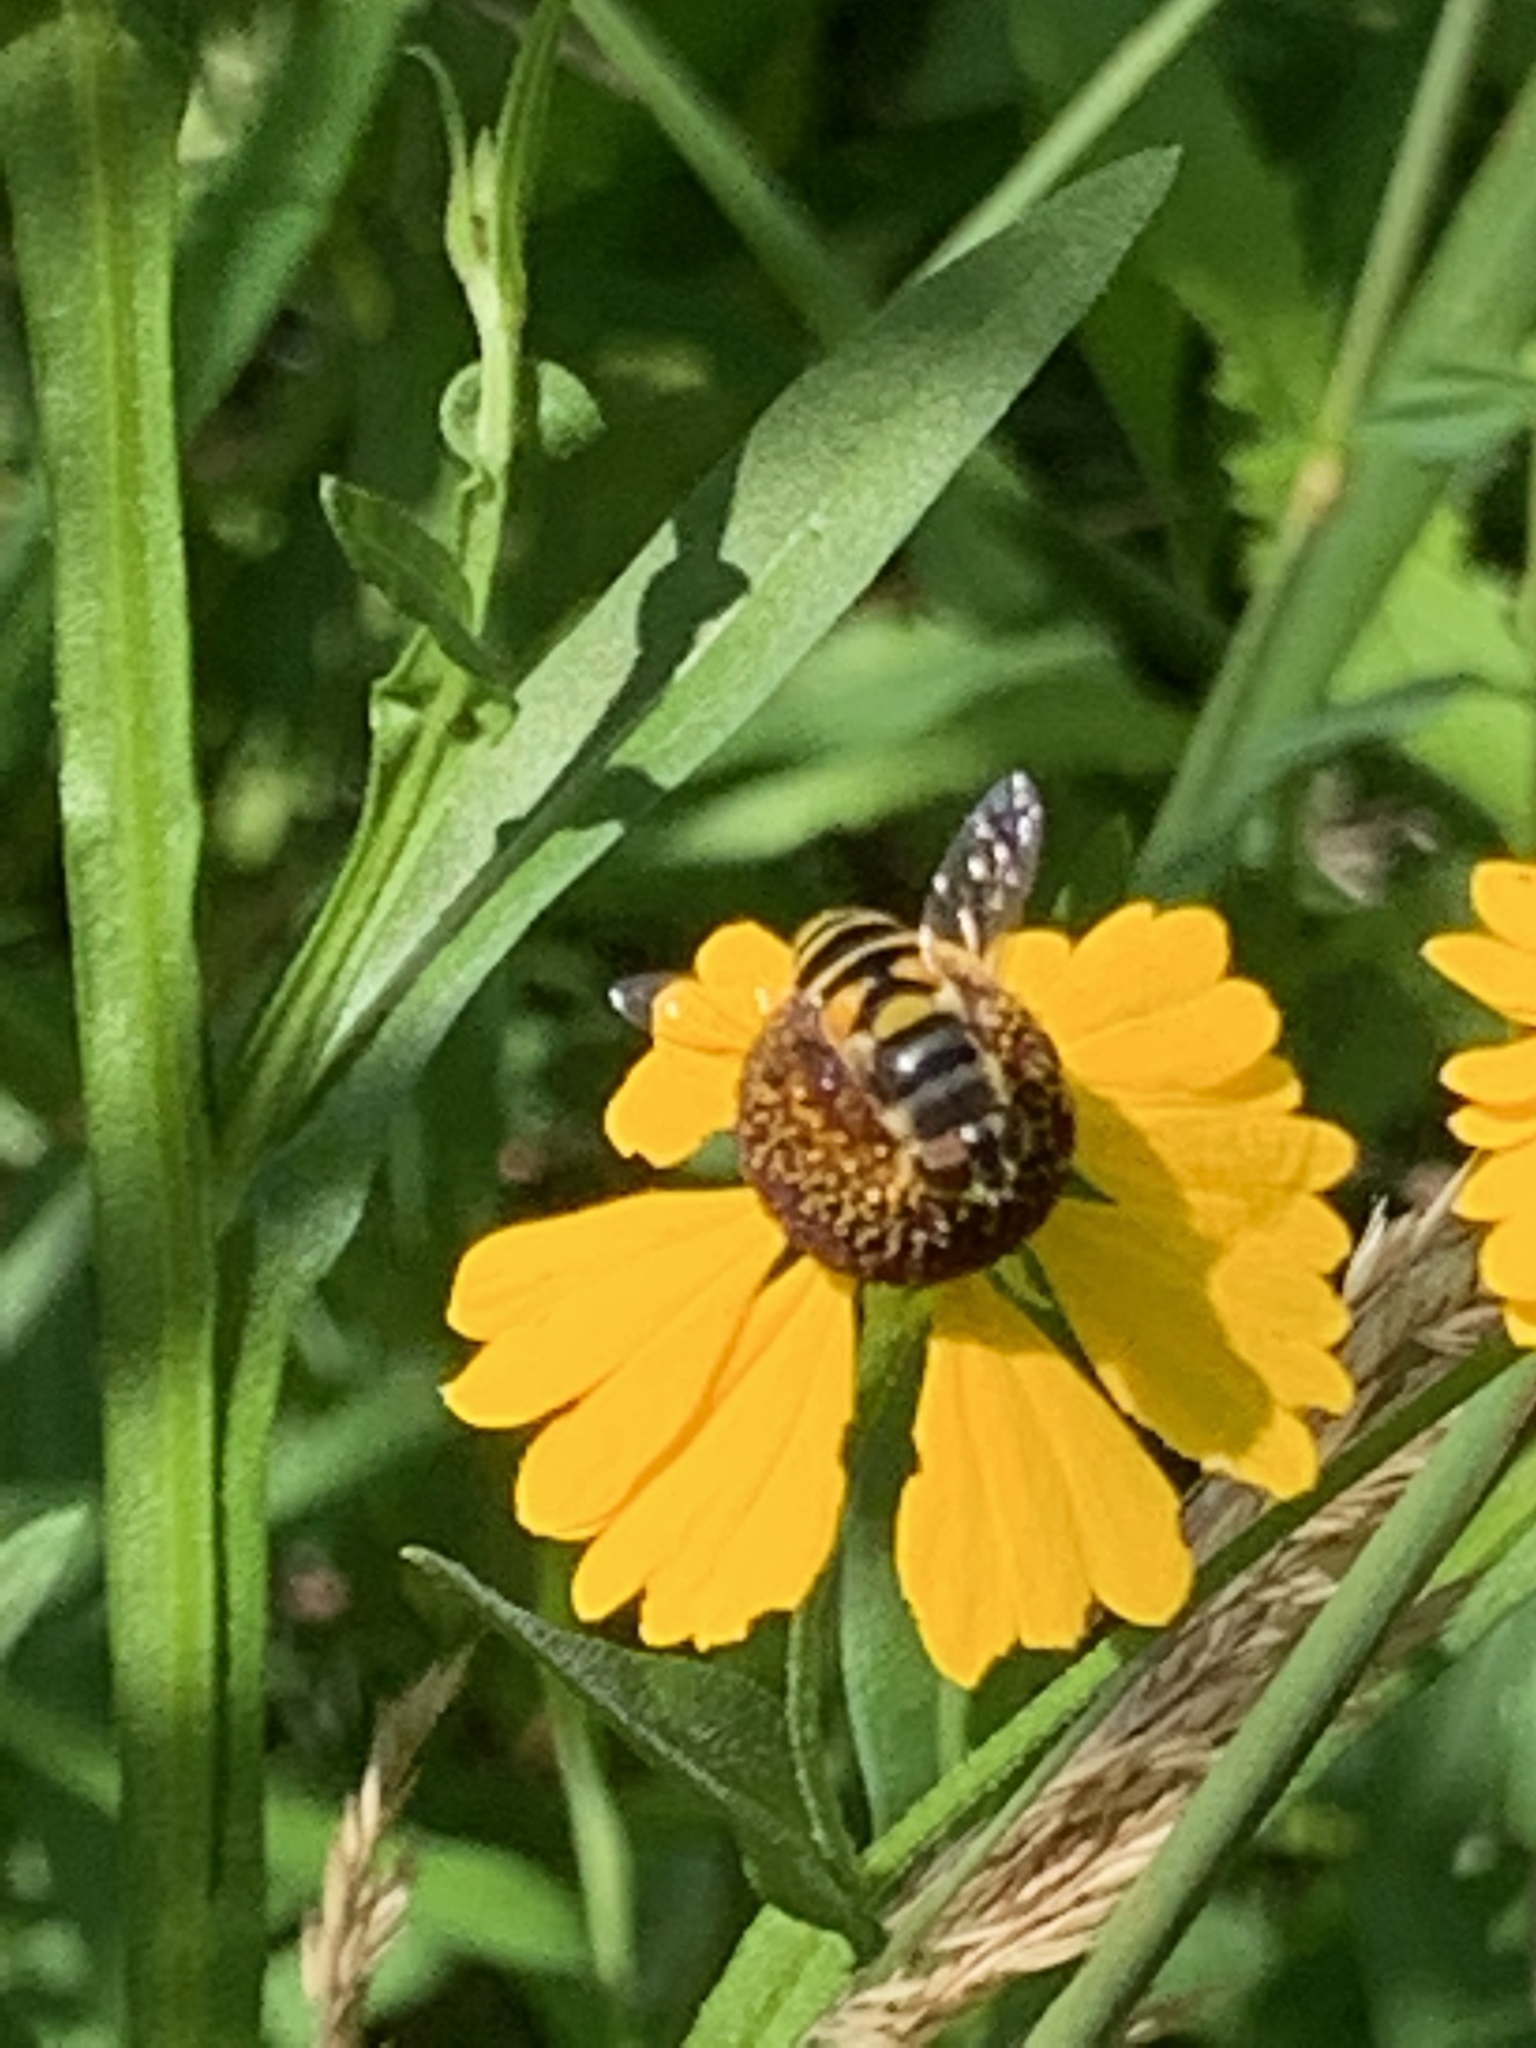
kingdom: Animalia
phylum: Arthropoda
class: Insecta
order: Diptera
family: Syrphidae
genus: Eristalis
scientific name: Eristalis transversa
